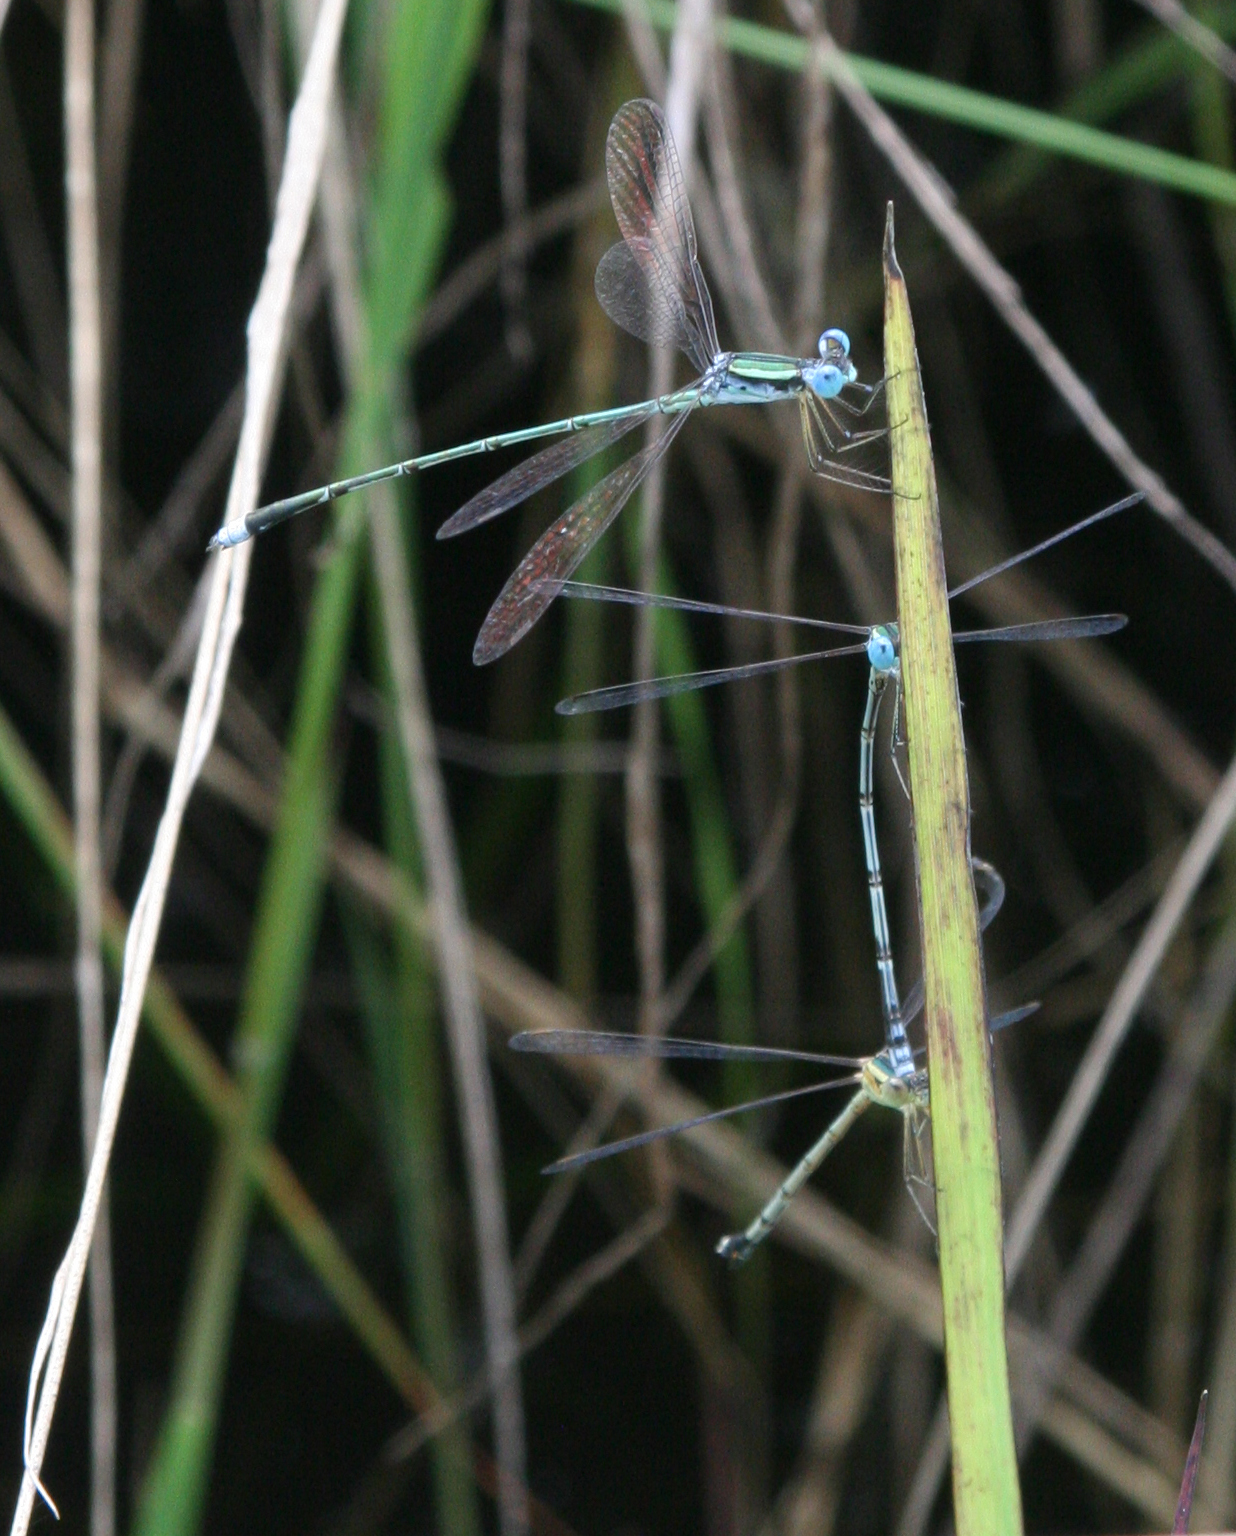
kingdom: Animalia
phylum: Arthropoda
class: Insecta
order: Odonata
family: Lestidae
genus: Lestes
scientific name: Lestes nigriceps
